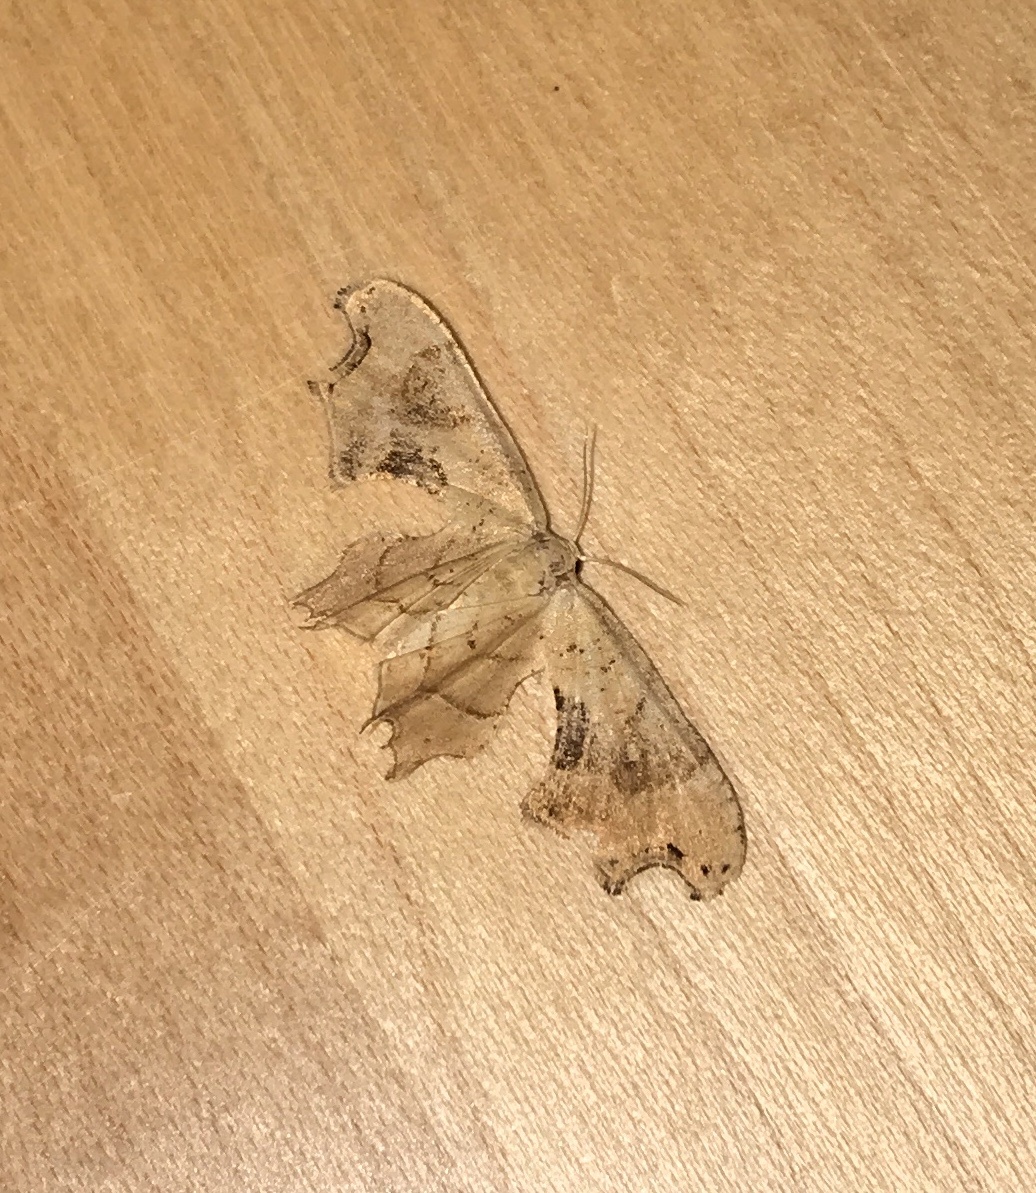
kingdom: Animalia
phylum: Arthropoda
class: Insecta
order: Lepidoptera
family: Uraniidae
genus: Epiplema
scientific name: Epiplema Calledapteryx dryopterata
